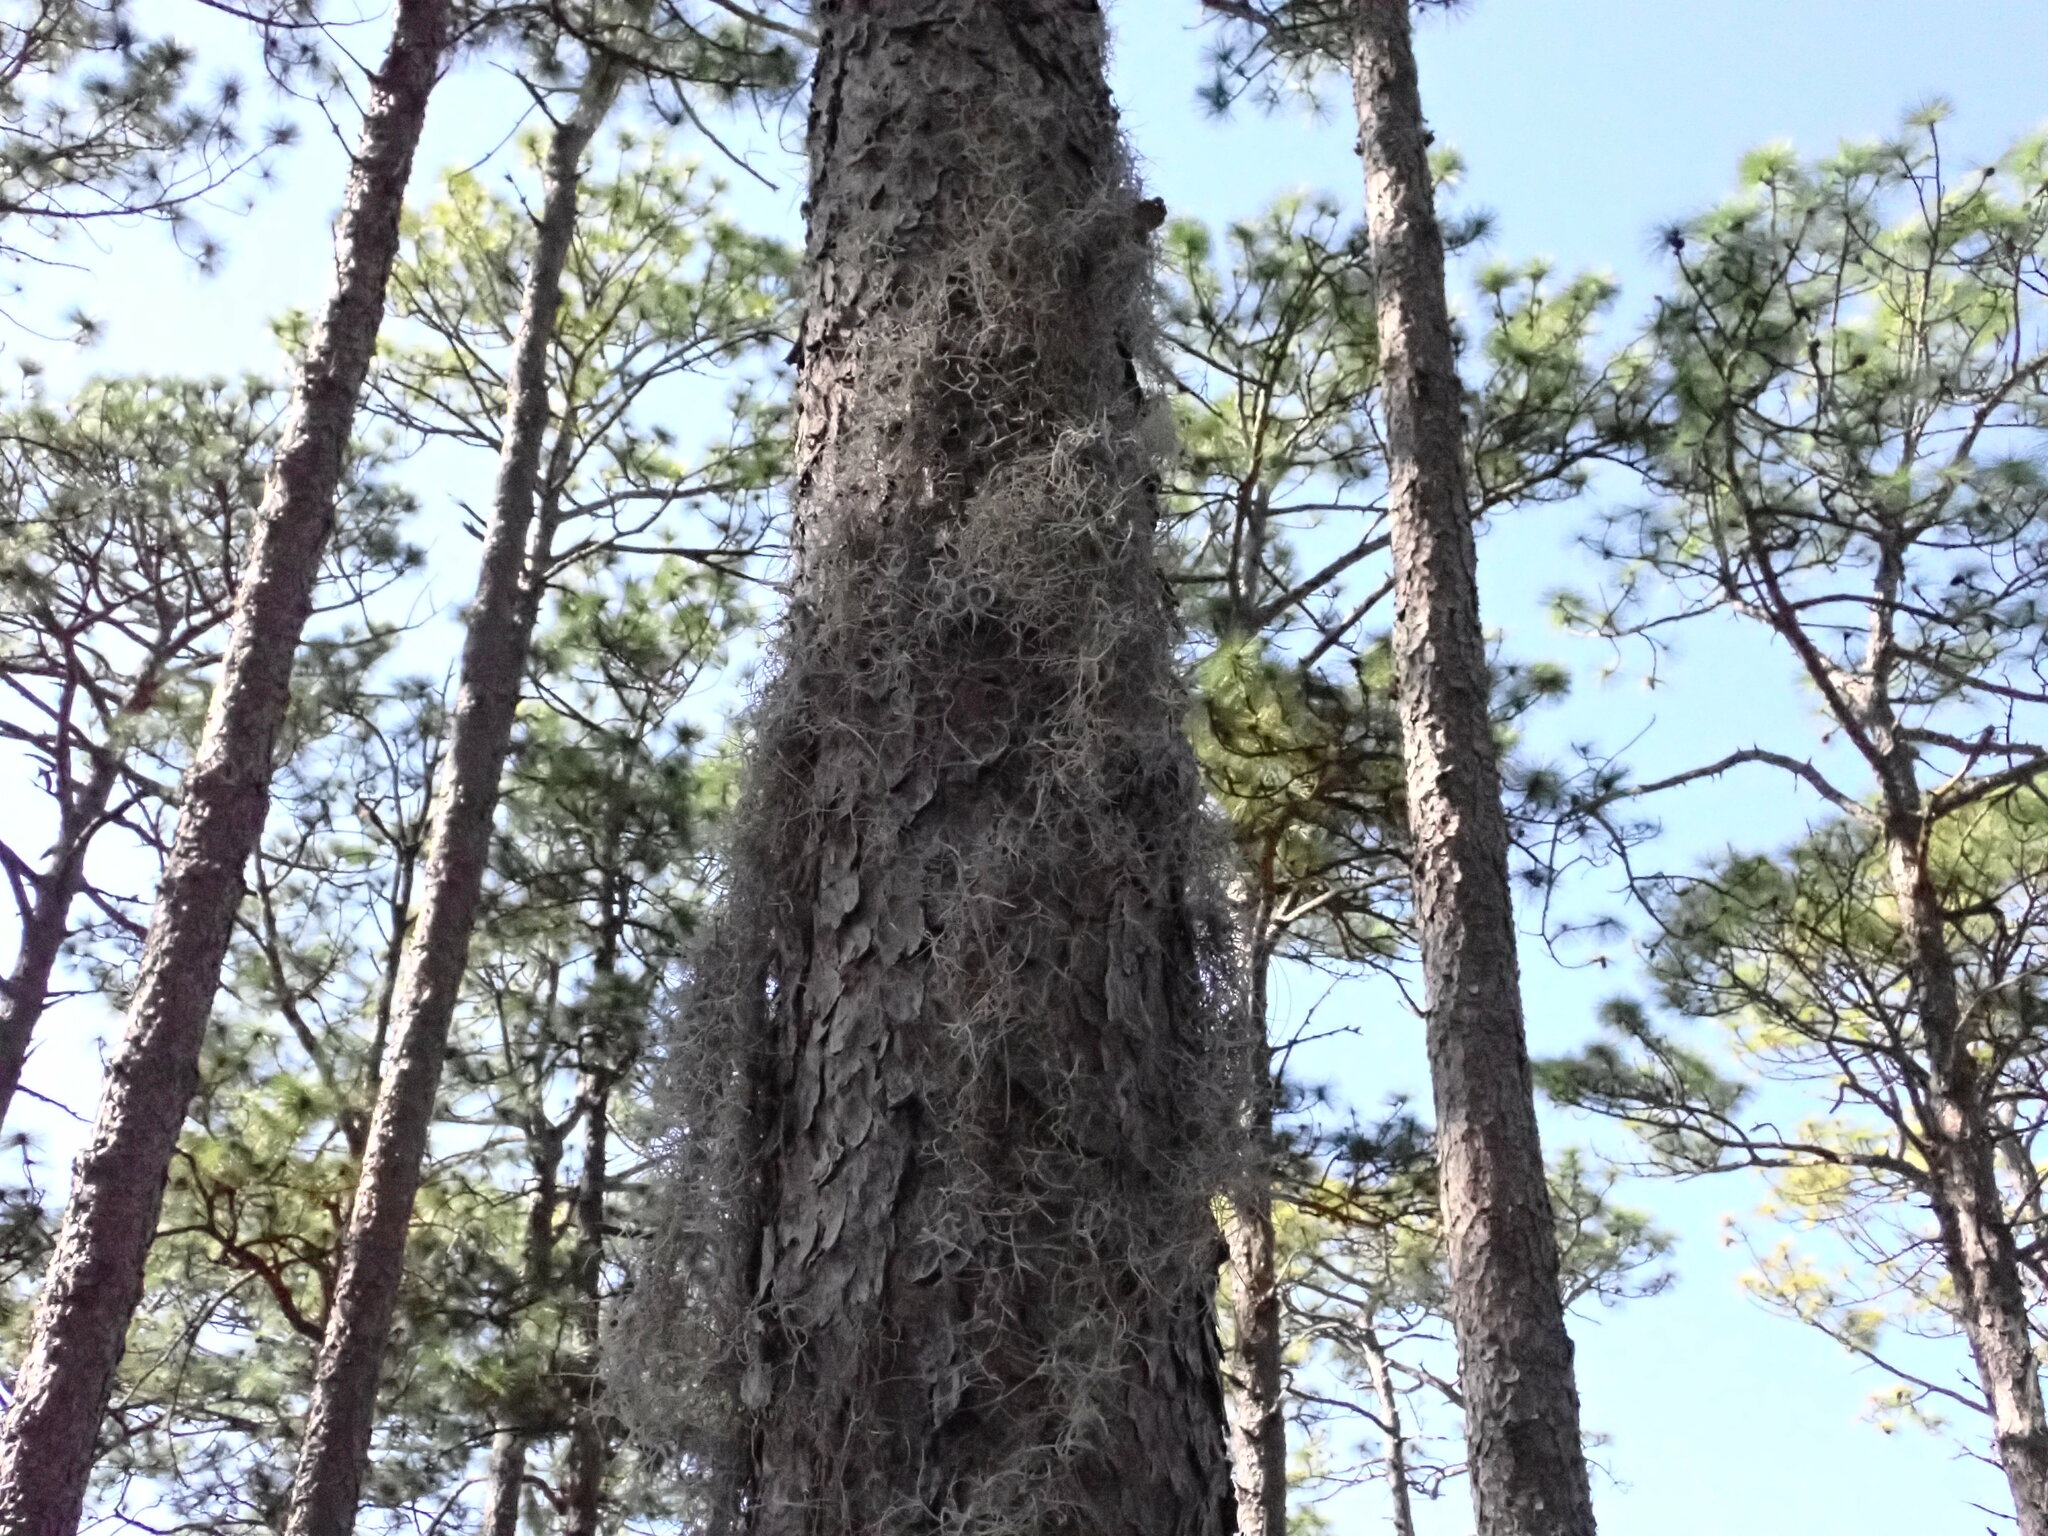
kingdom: Plantae
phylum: Tracheophyta
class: Liliopsida
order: Poales
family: Bromeliaceae
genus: Tillandsia
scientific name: Tillandsia usneoides
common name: Spanish moss
